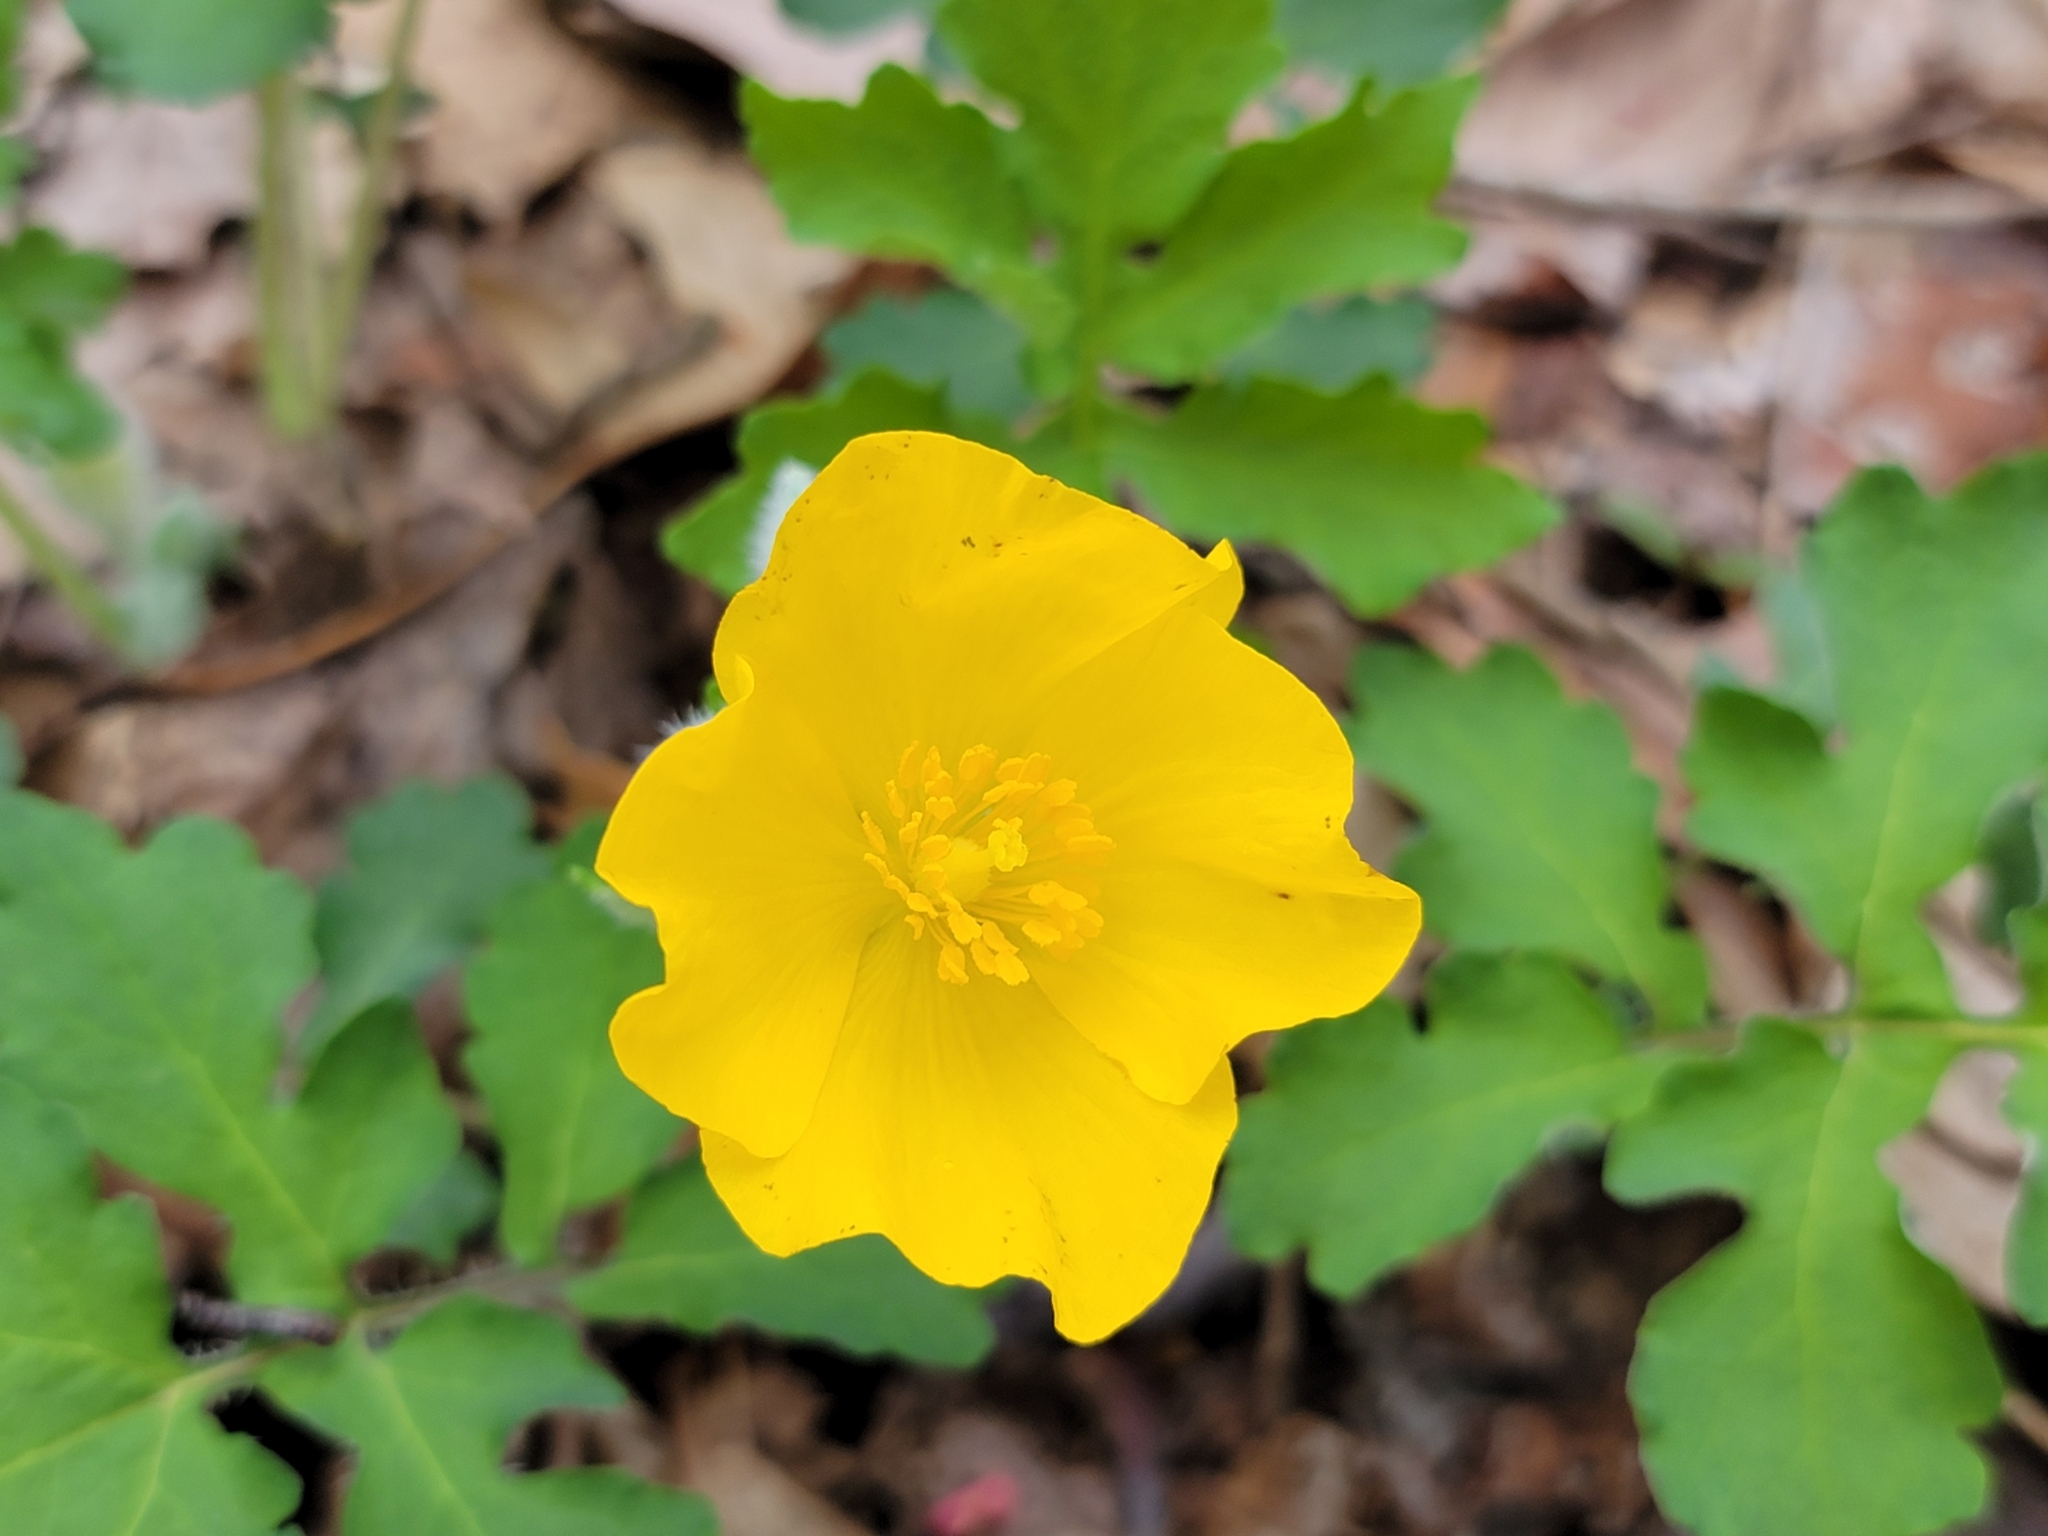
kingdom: Plantae
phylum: Tracheophyta
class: Magnoliopsida
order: Ranunculales
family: Papaveraceae
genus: Stylophorum
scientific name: Stylophorum diphyllum
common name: Celandine poppy
